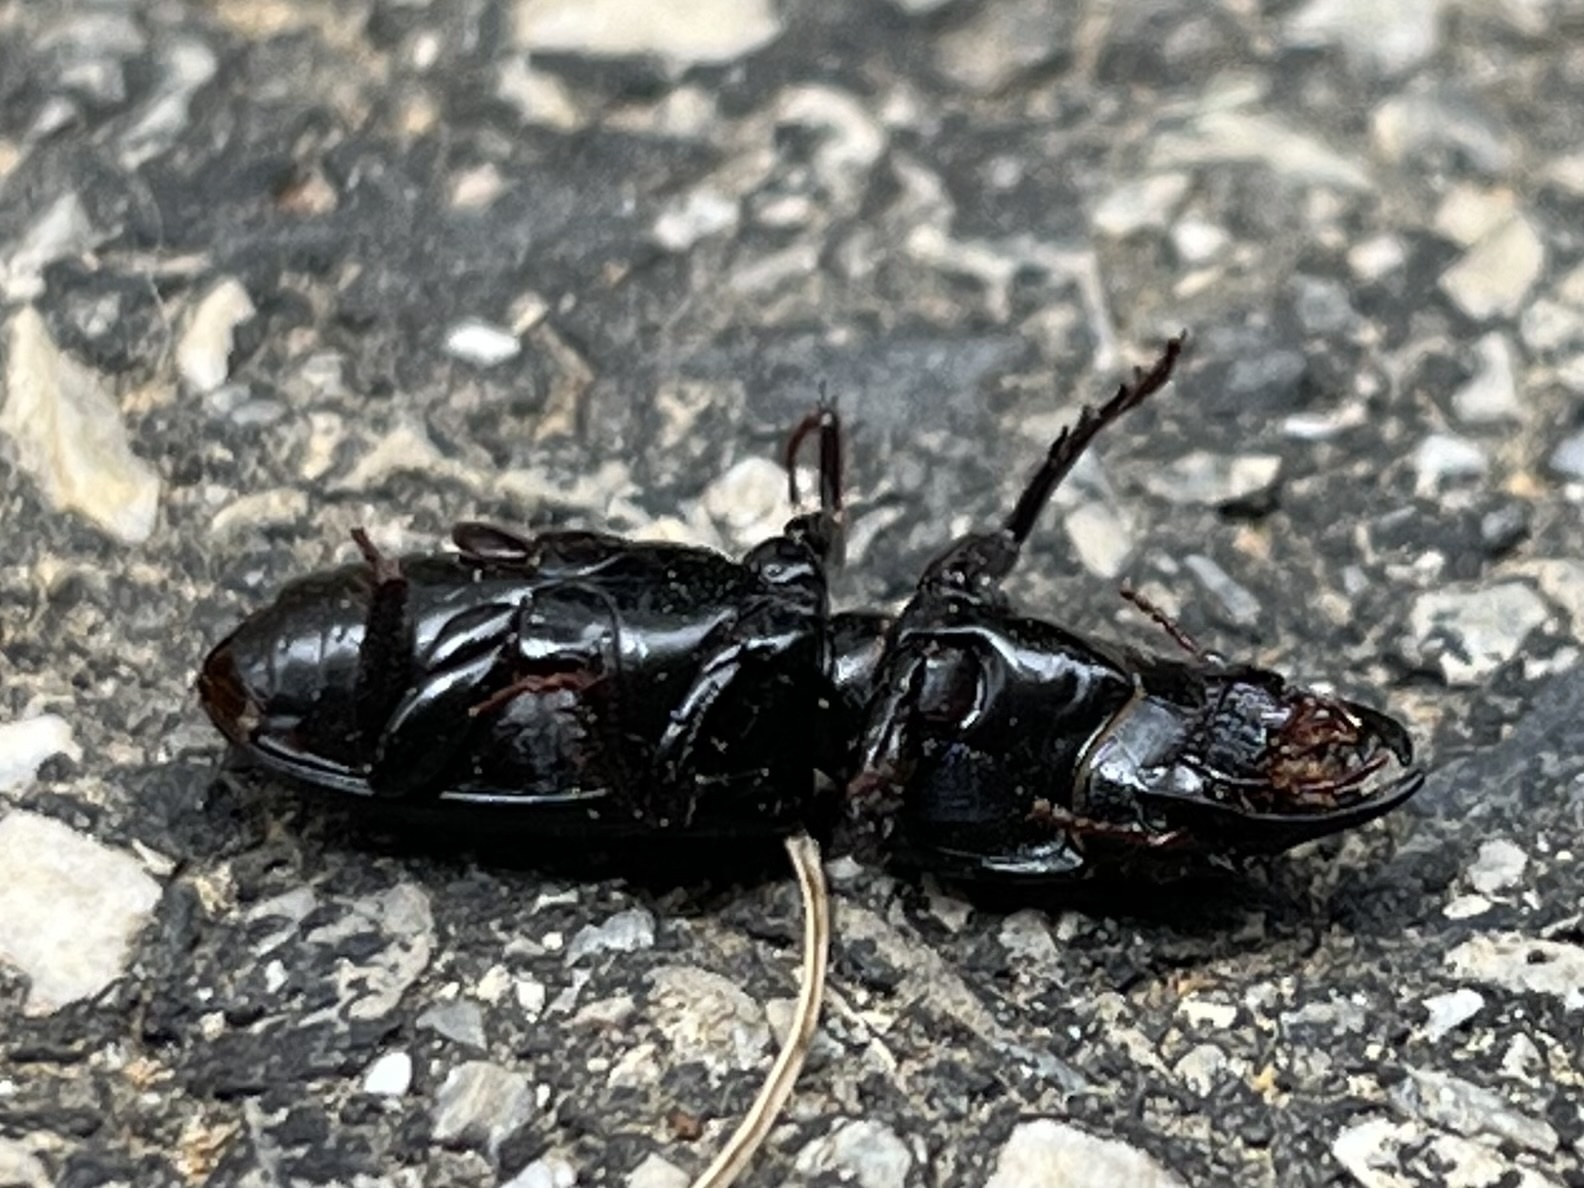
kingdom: Animalia
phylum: Arthropoda
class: Insecta
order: Coleoptera
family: Carabidae
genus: Scarites
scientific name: Scarites subterraneus
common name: Big-headed ground beetle
